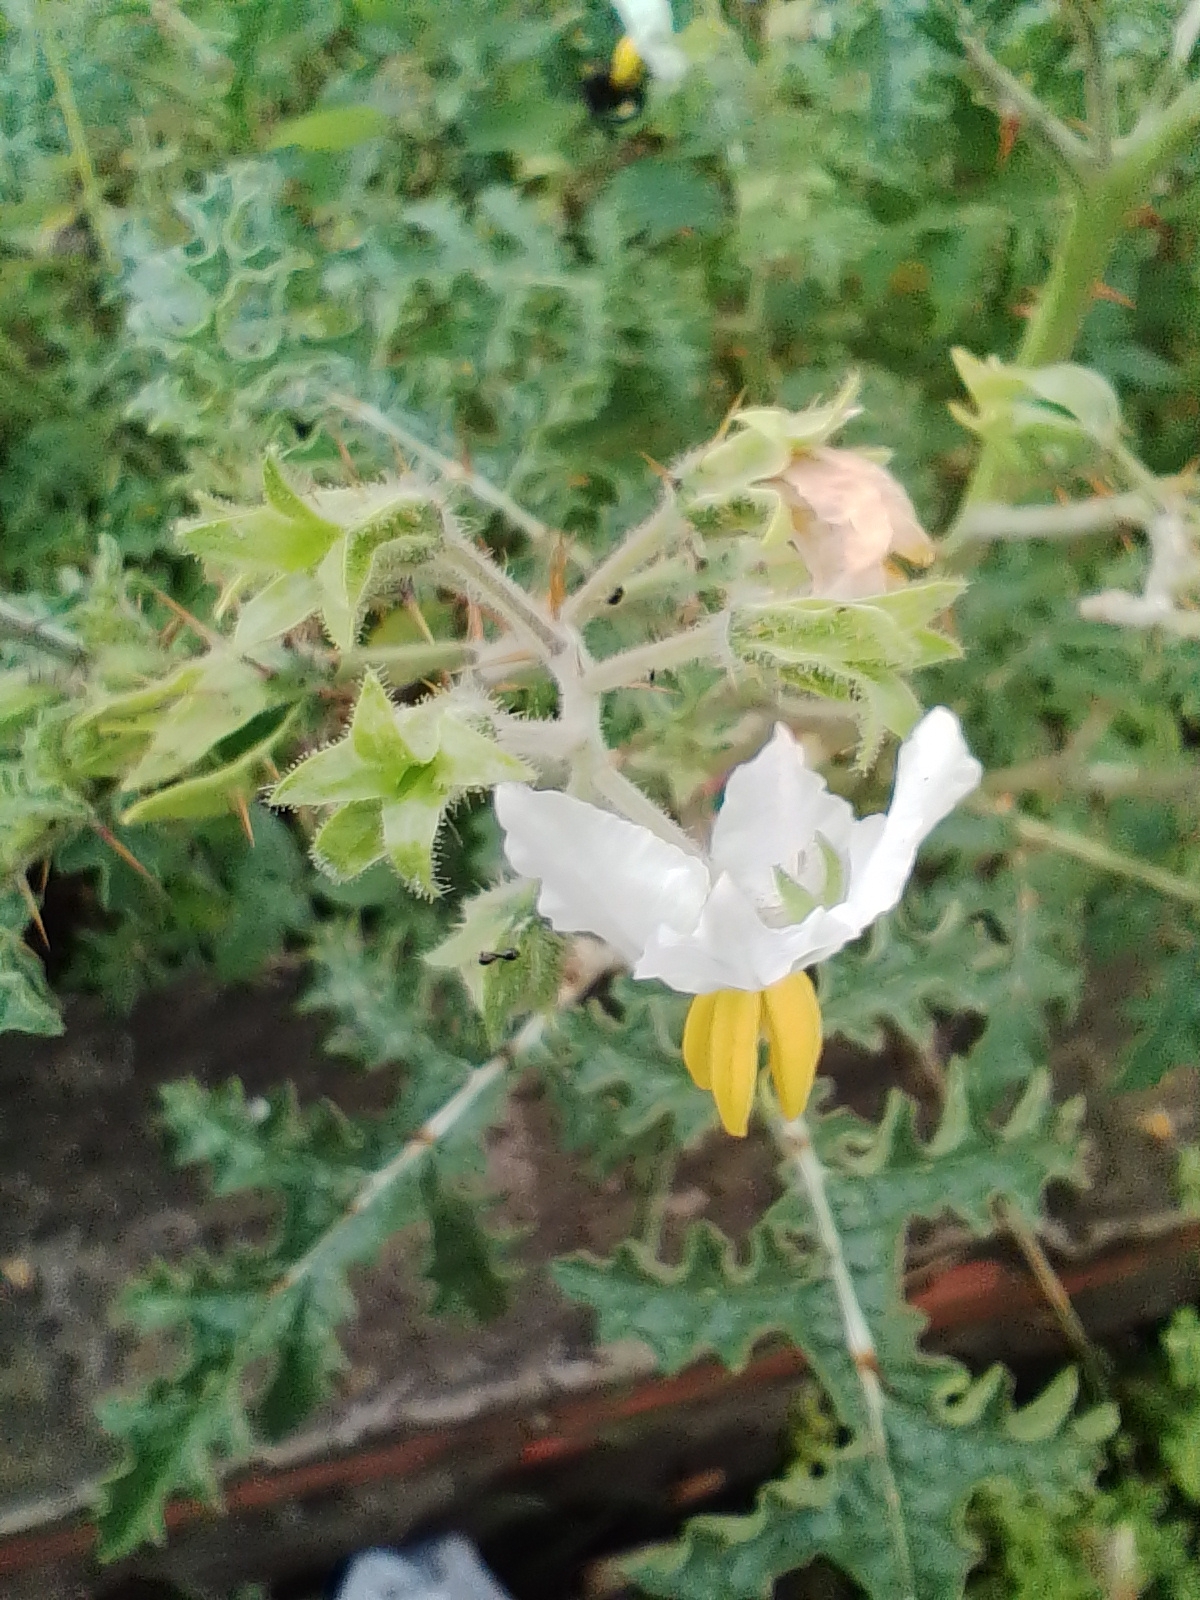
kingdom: Plantae
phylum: Tracheophyta
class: Magnoliopsida
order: Solanales
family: Solanaceae
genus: Solanum
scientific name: Solanum sisymbriifolium
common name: Red buffalo-bur
